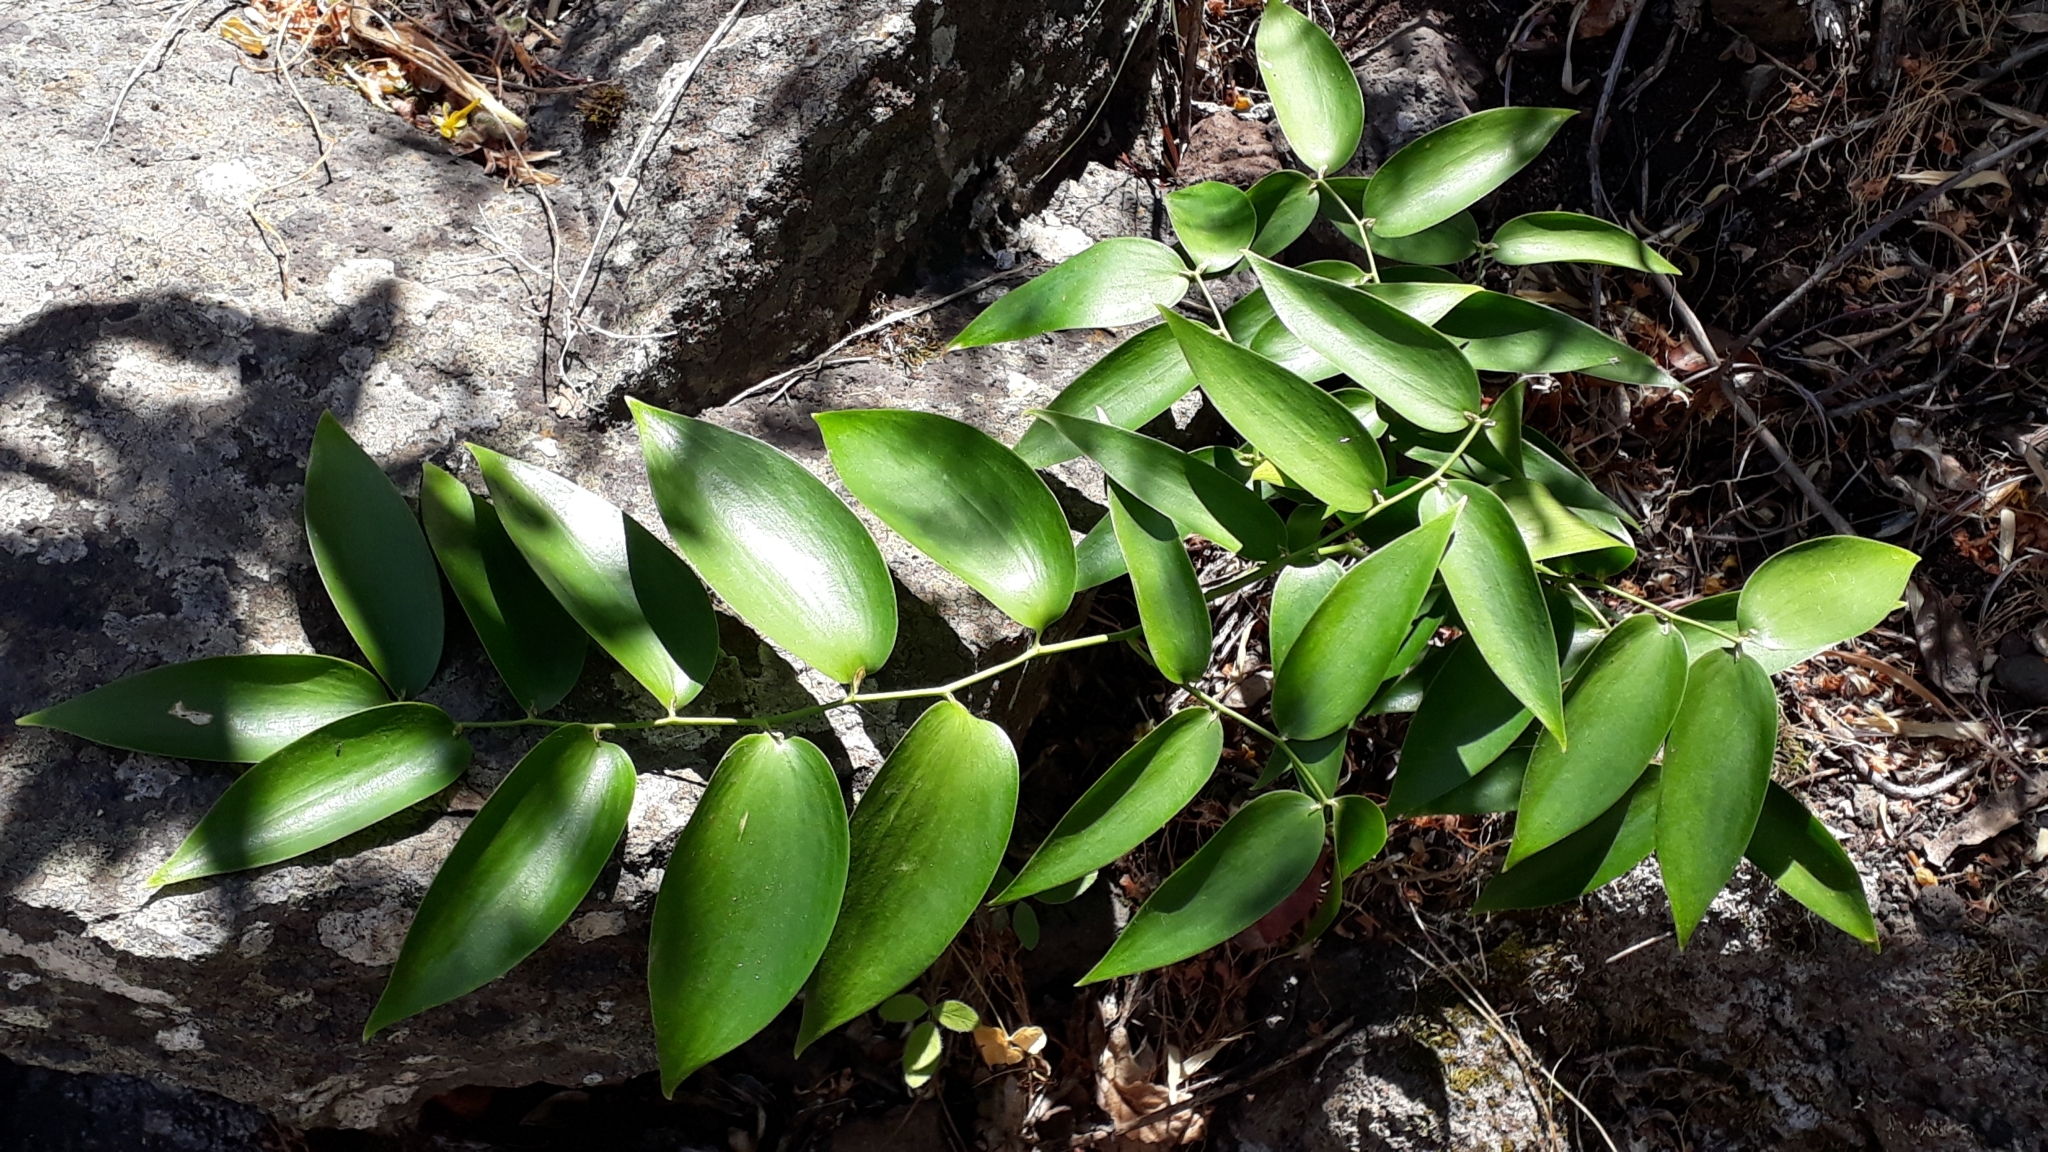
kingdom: Plantae
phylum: Tracheophyta
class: Liliopsida
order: Asparagales
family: Asparagaceae
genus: Semele
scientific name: Semele androgyna
